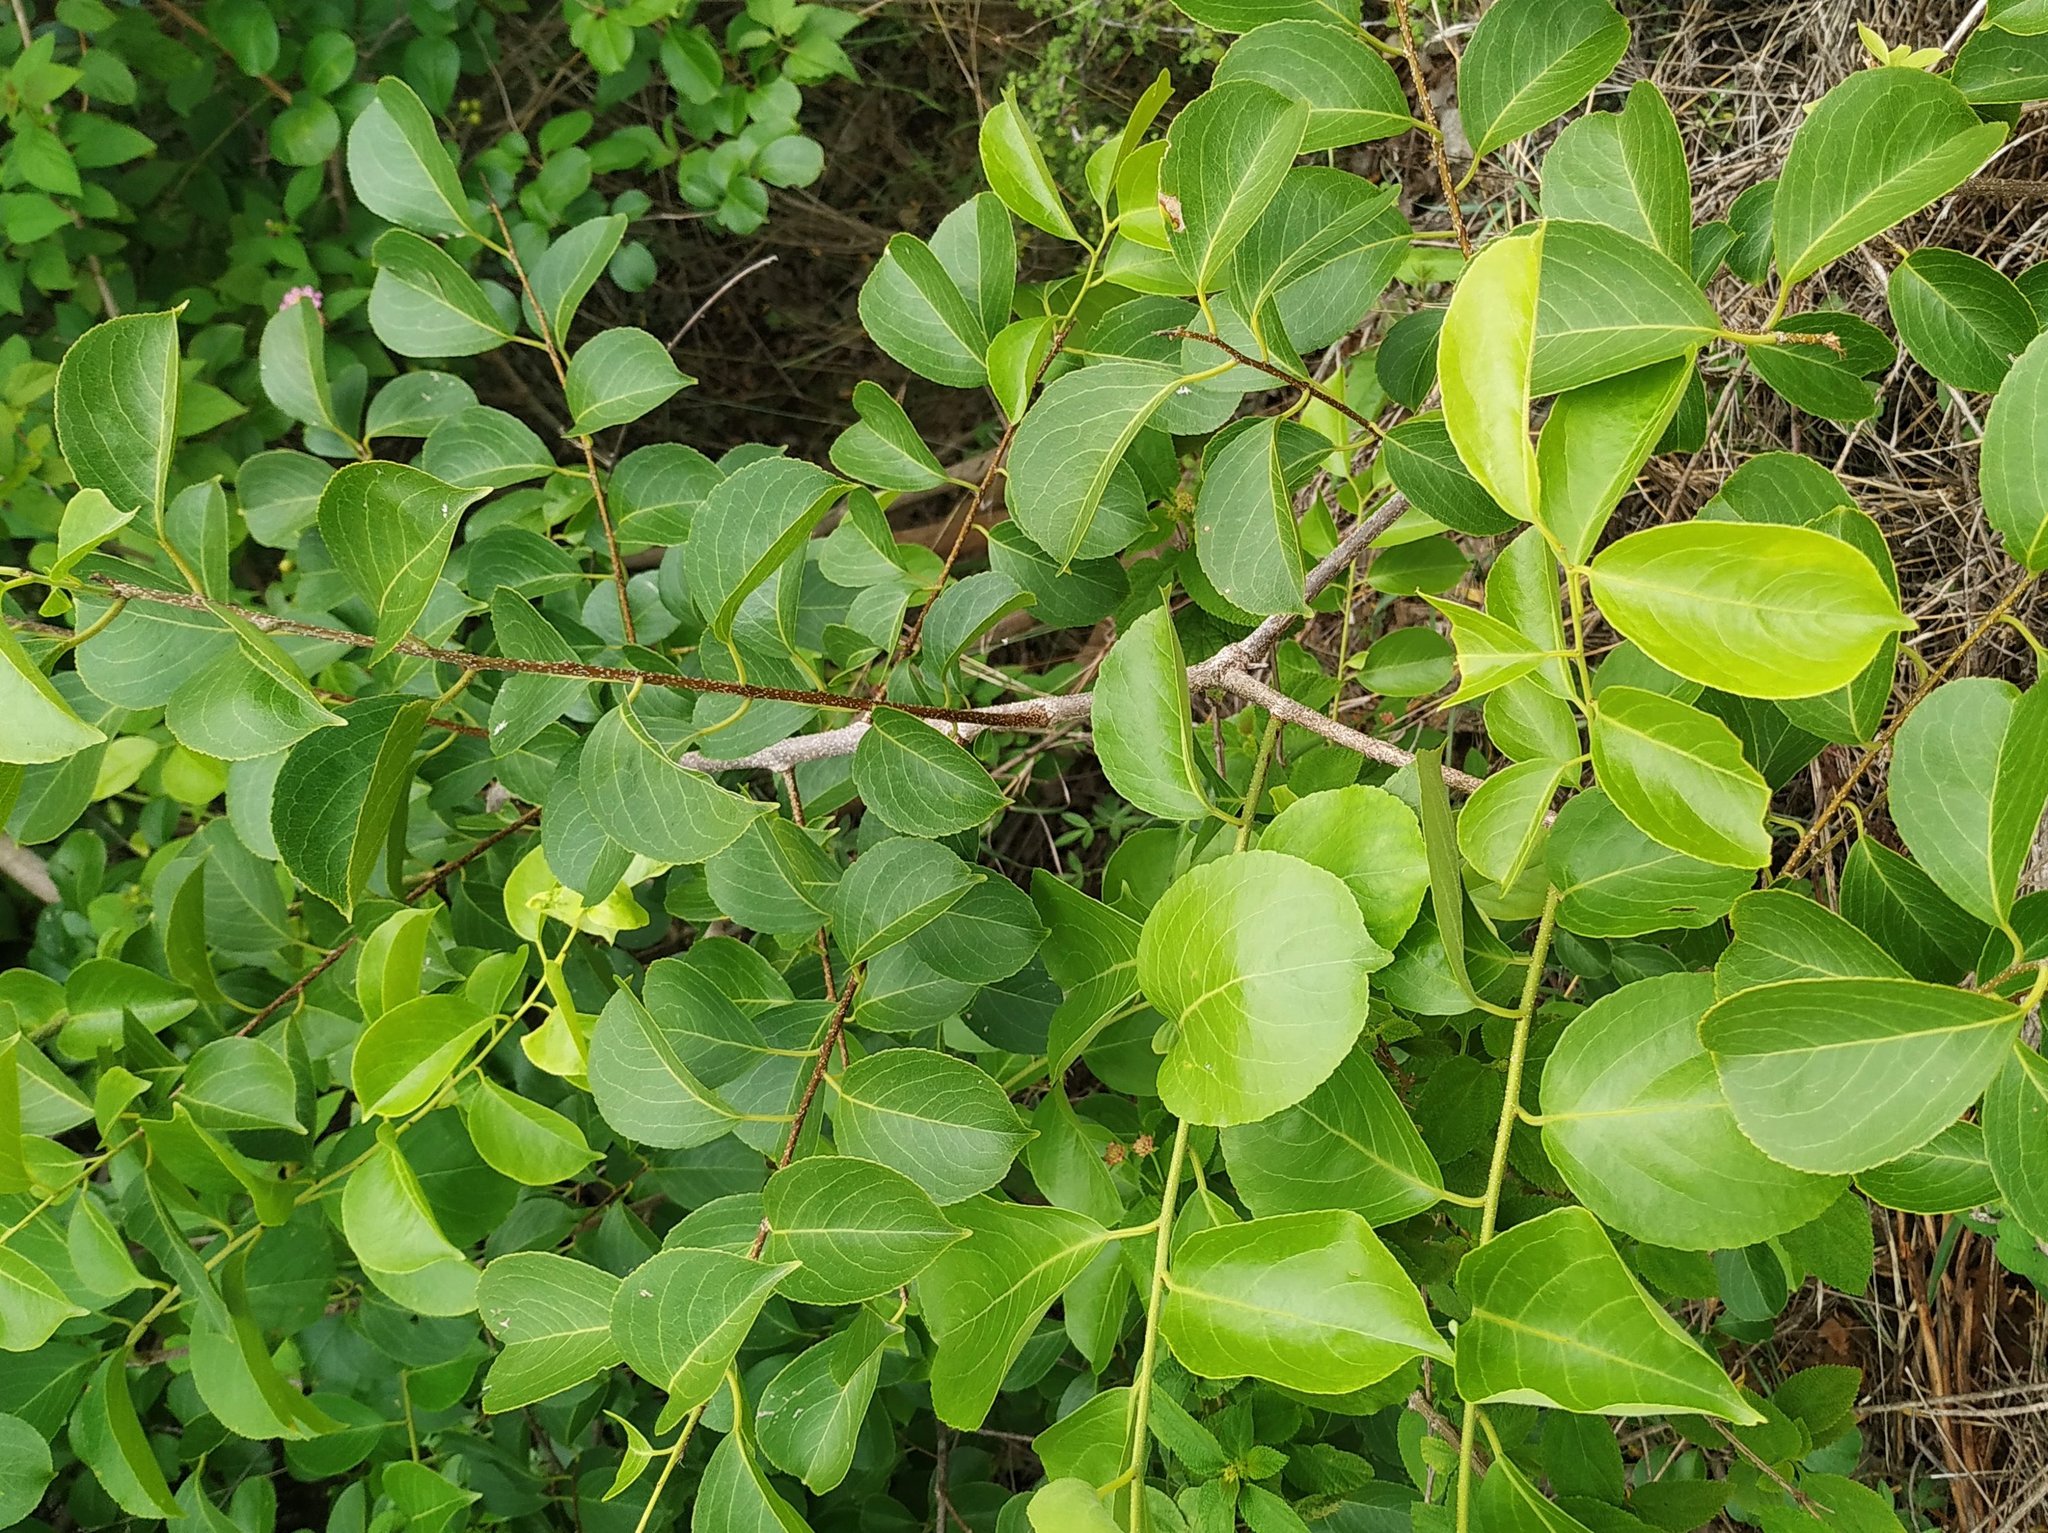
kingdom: Plantae
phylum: Tracheophyta
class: Magnoliopsida
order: Celastrales
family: Celastraceae
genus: Celastrus
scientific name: Celastrus paniculatus
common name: Oriental bittersweet; staff vine
